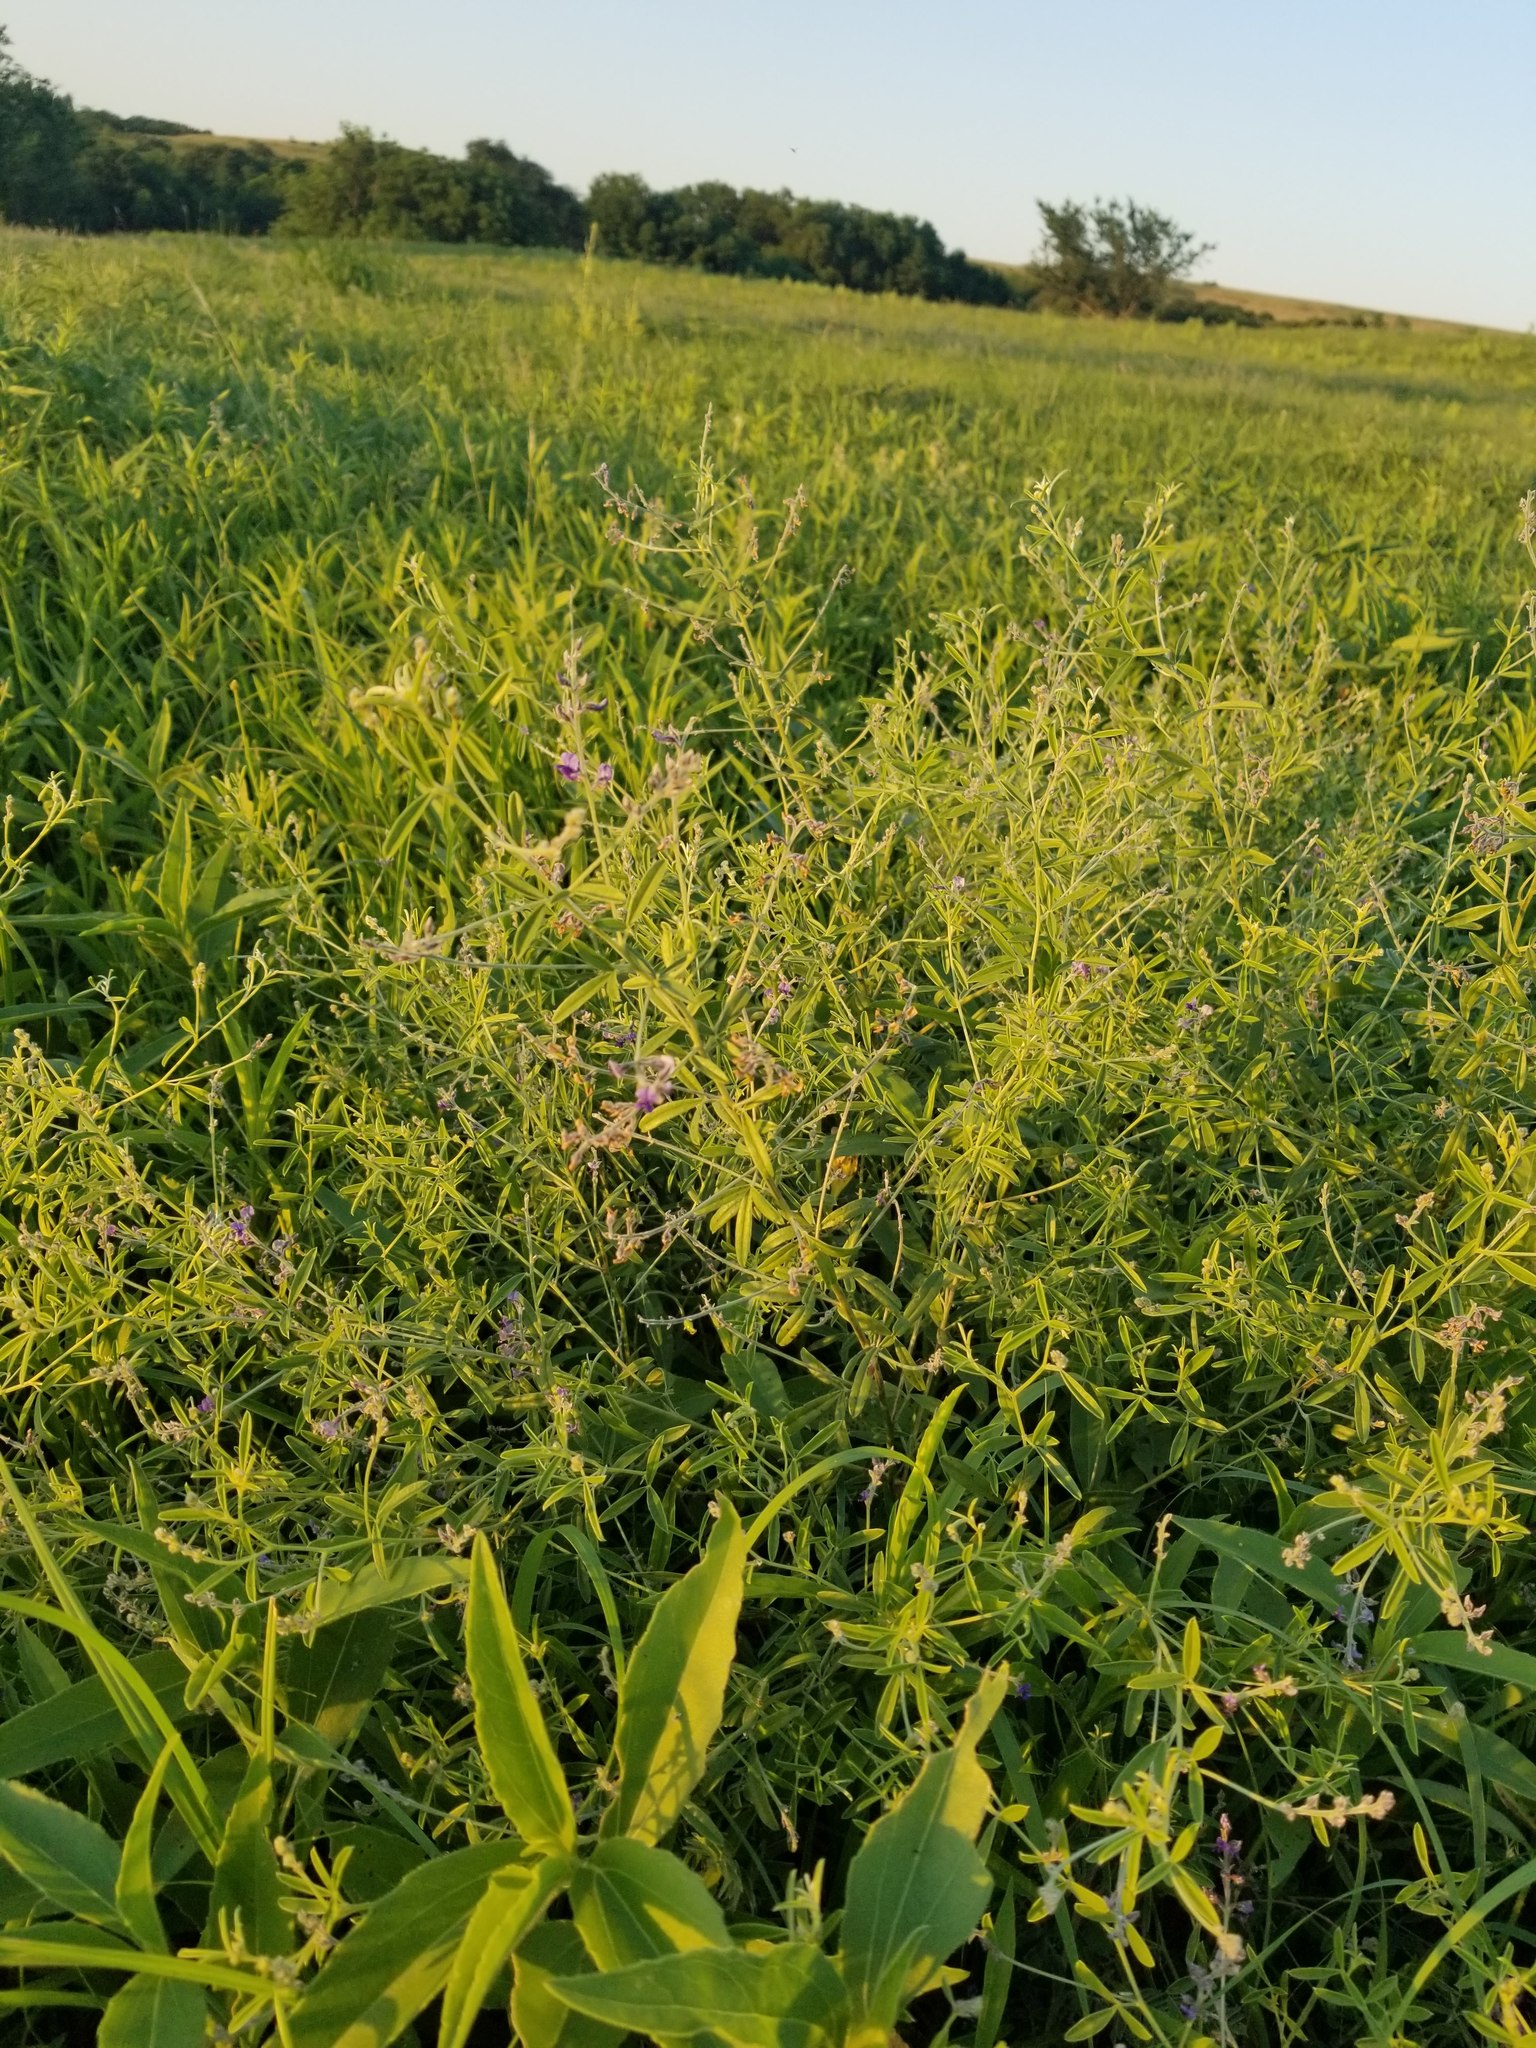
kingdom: Plantae
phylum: Tracheophyta
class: Magnoliopsida
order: Fabales
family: Fabaceae
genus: Pediomelum
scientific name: Pediomelum tenuiflorum
